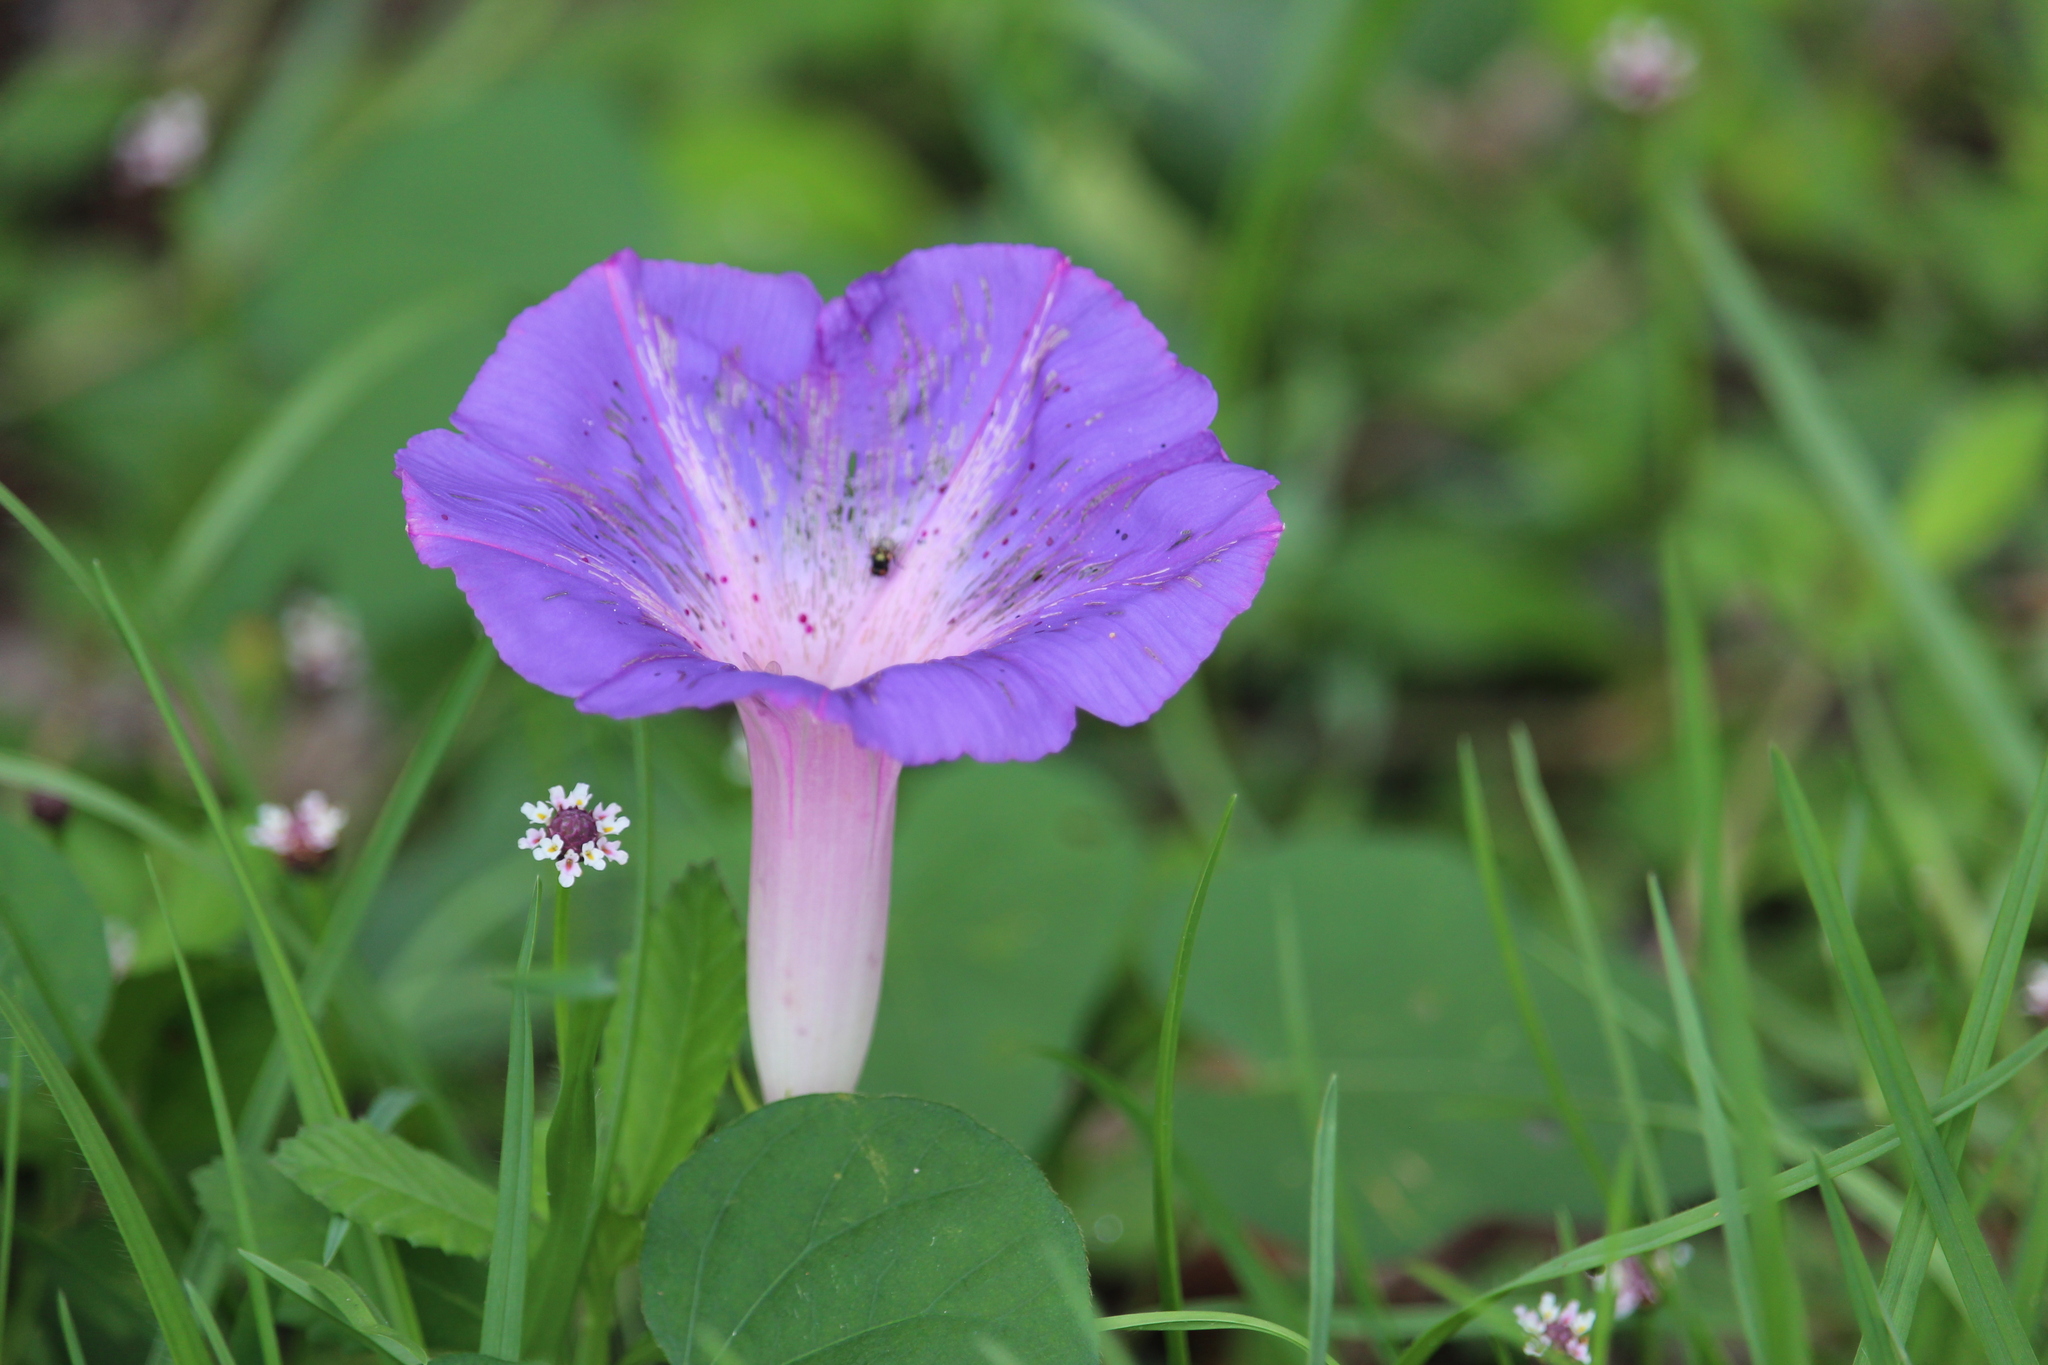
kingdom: Plantae
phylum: Tracheophyta
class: Magnoliopsida
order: Solanales
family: Convolvulaceae
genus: Ipomoea
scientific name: Ipomoea indica
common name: Blue dawnflower
